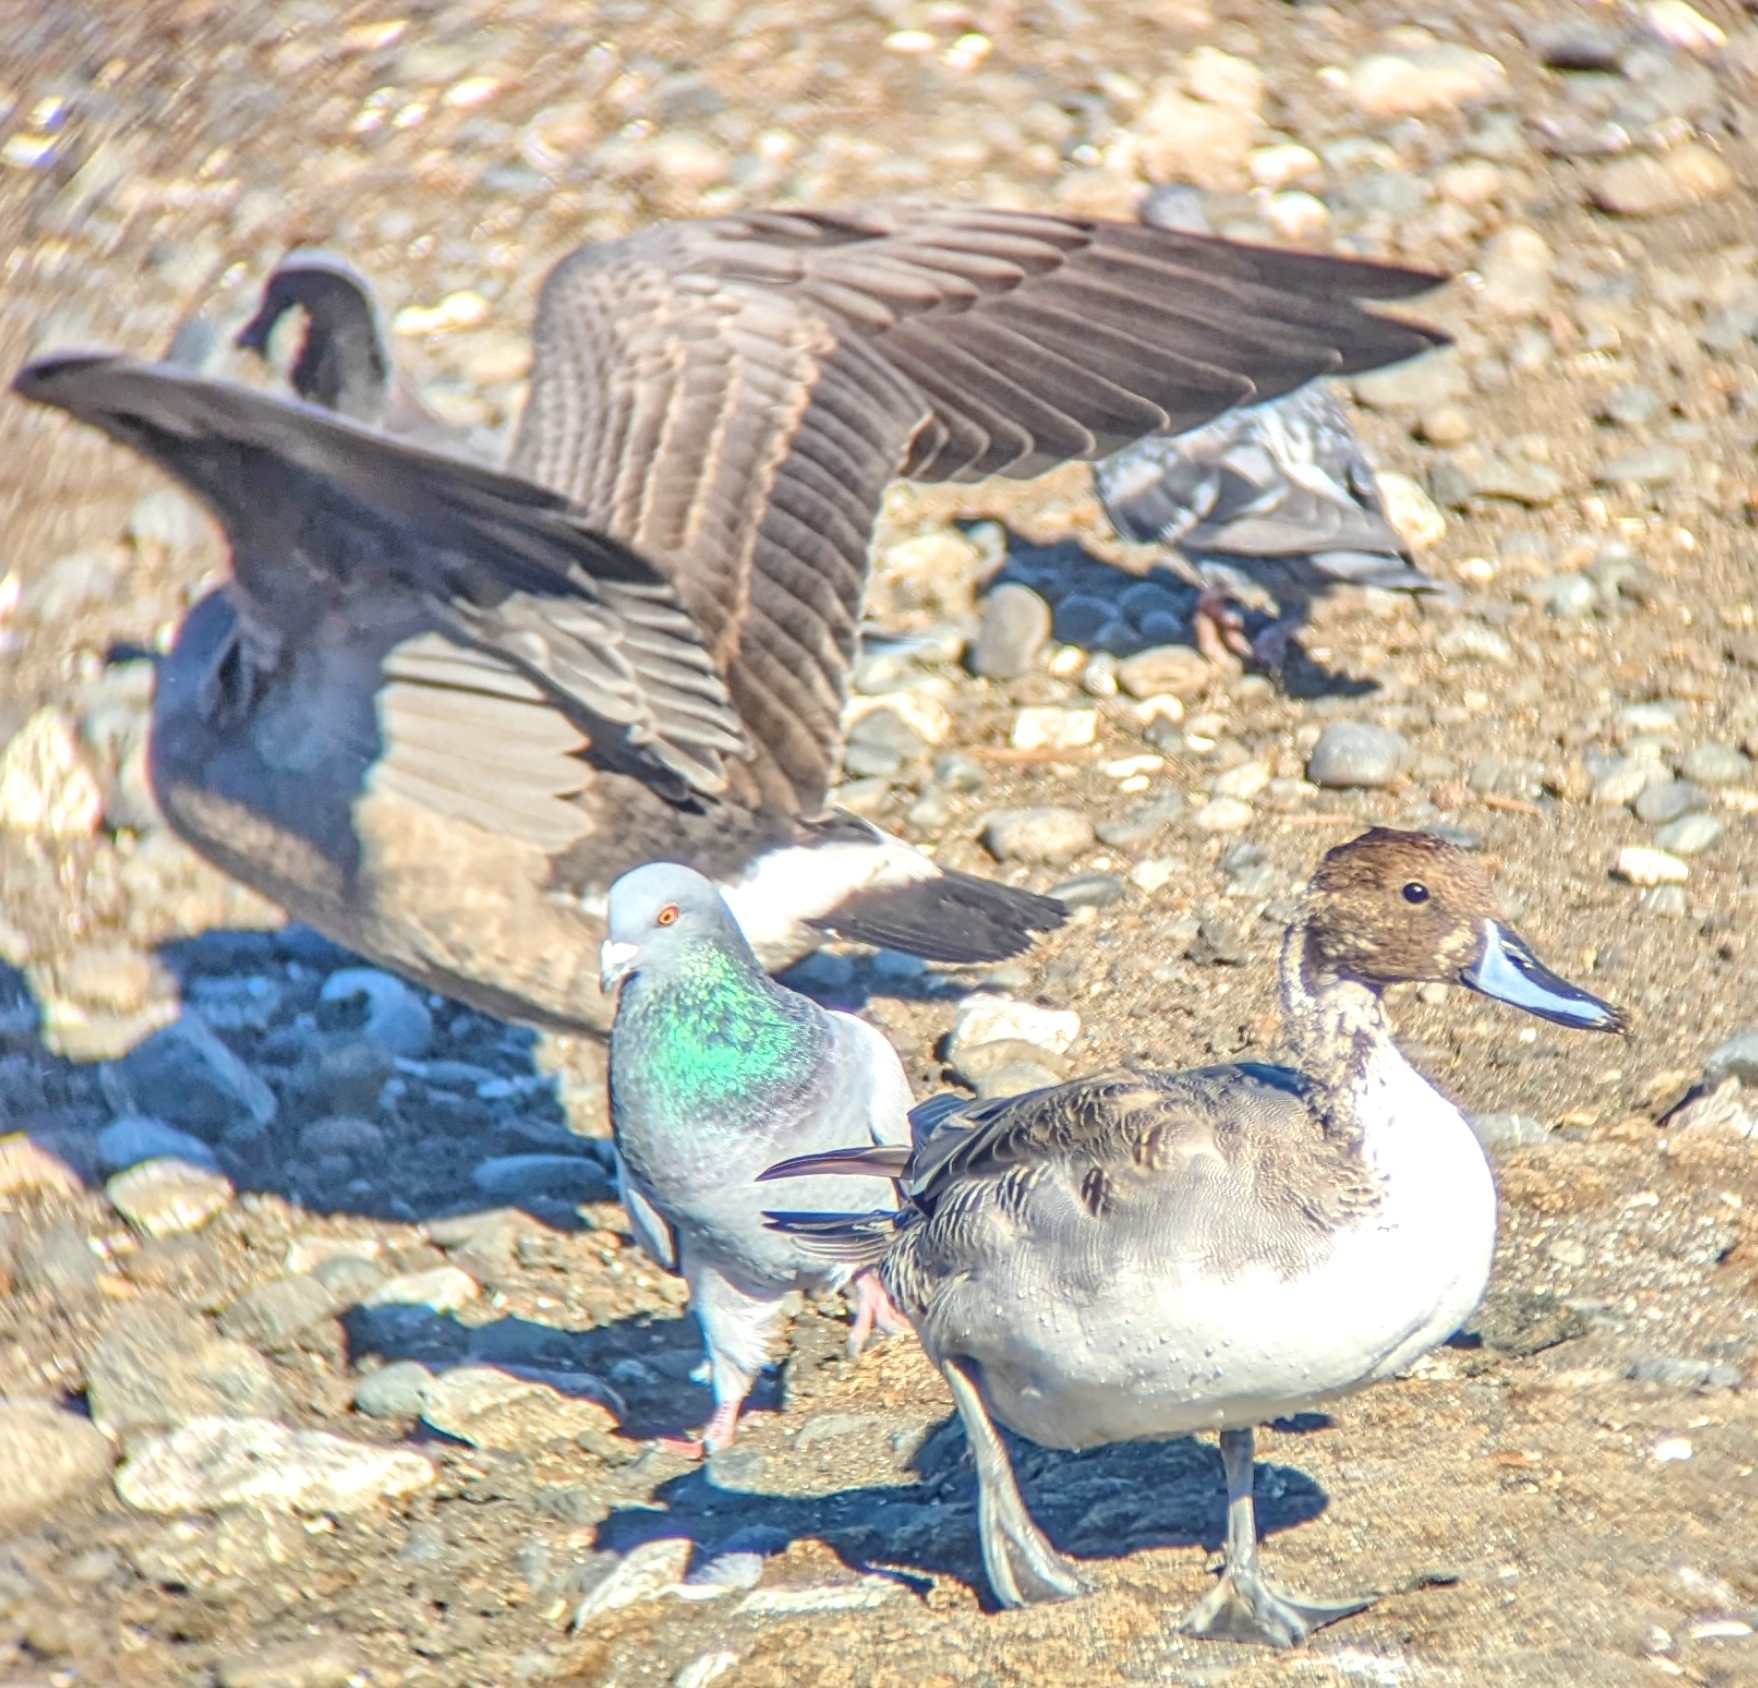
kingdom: Animalia
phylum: Chordata
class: Aves
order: Anseriformes
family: Anatidae
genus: Anas
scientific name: Anas acuta
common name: Northern pintail
